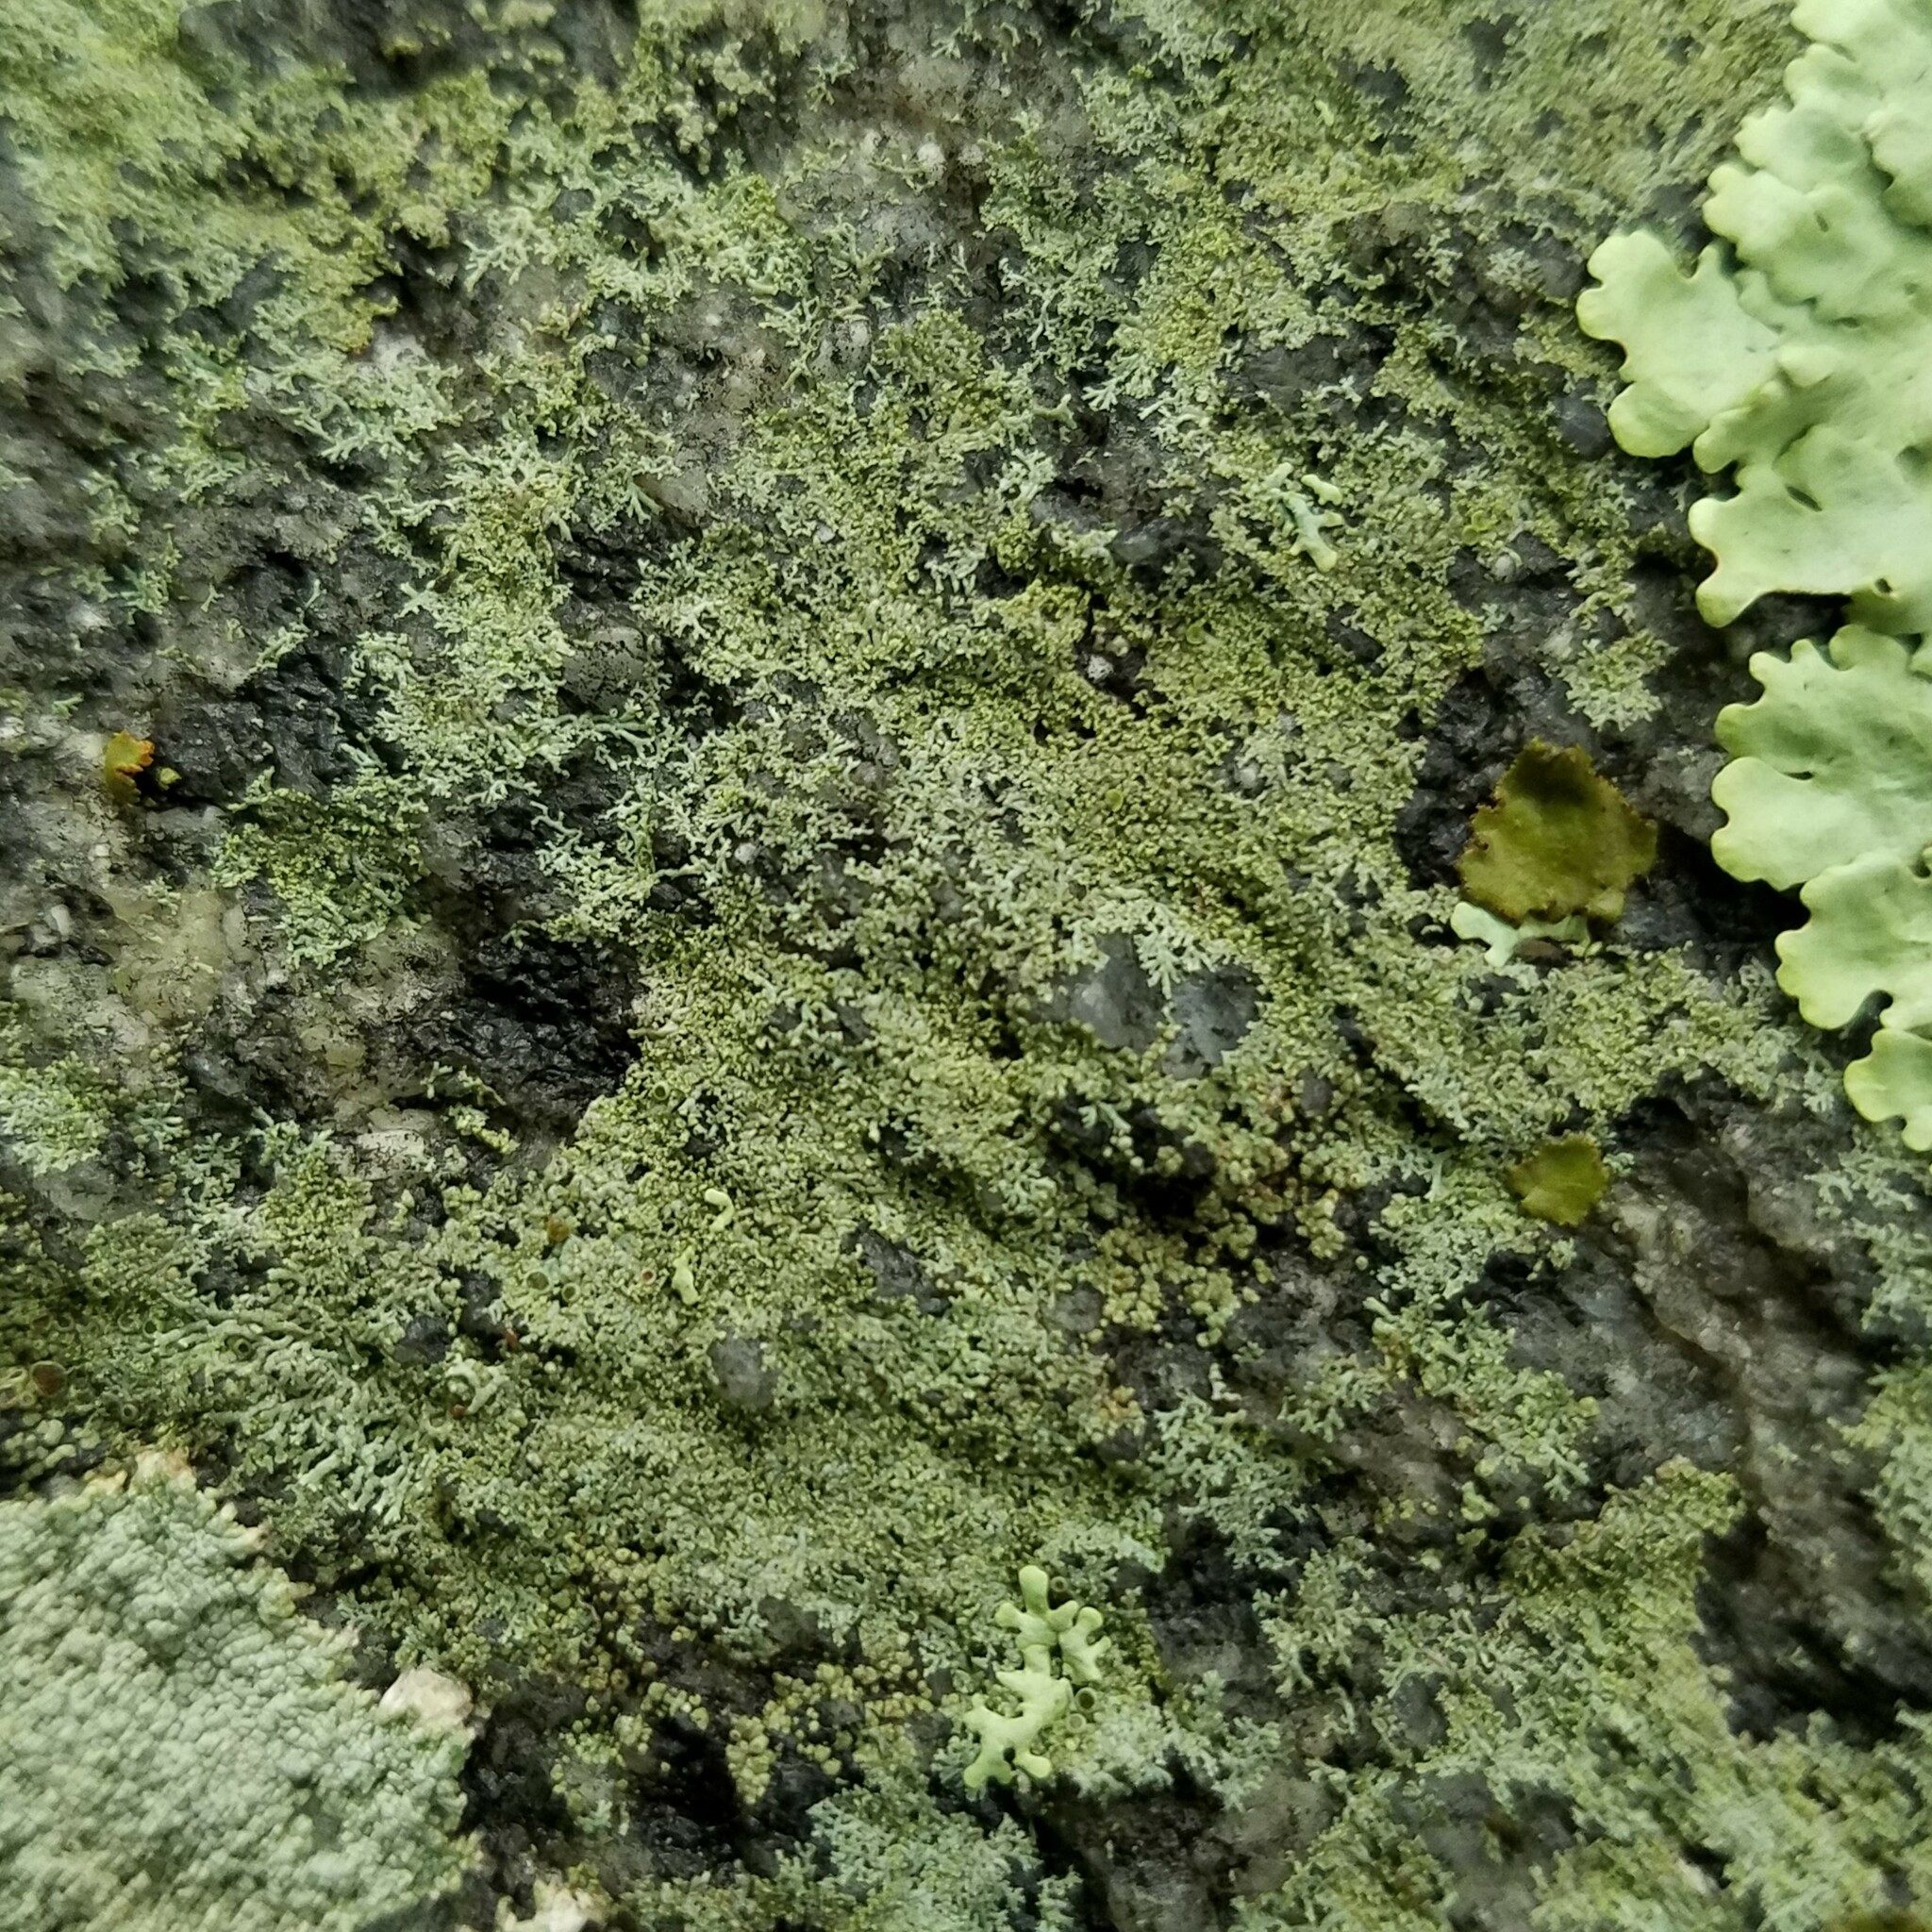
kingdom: Fungi
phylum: Ascomycota
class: Lecanoromycetes
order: Caliciales
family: Physciaceae
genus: Physcia
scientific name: Physcia subtilis
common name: Slender rosette lichen
